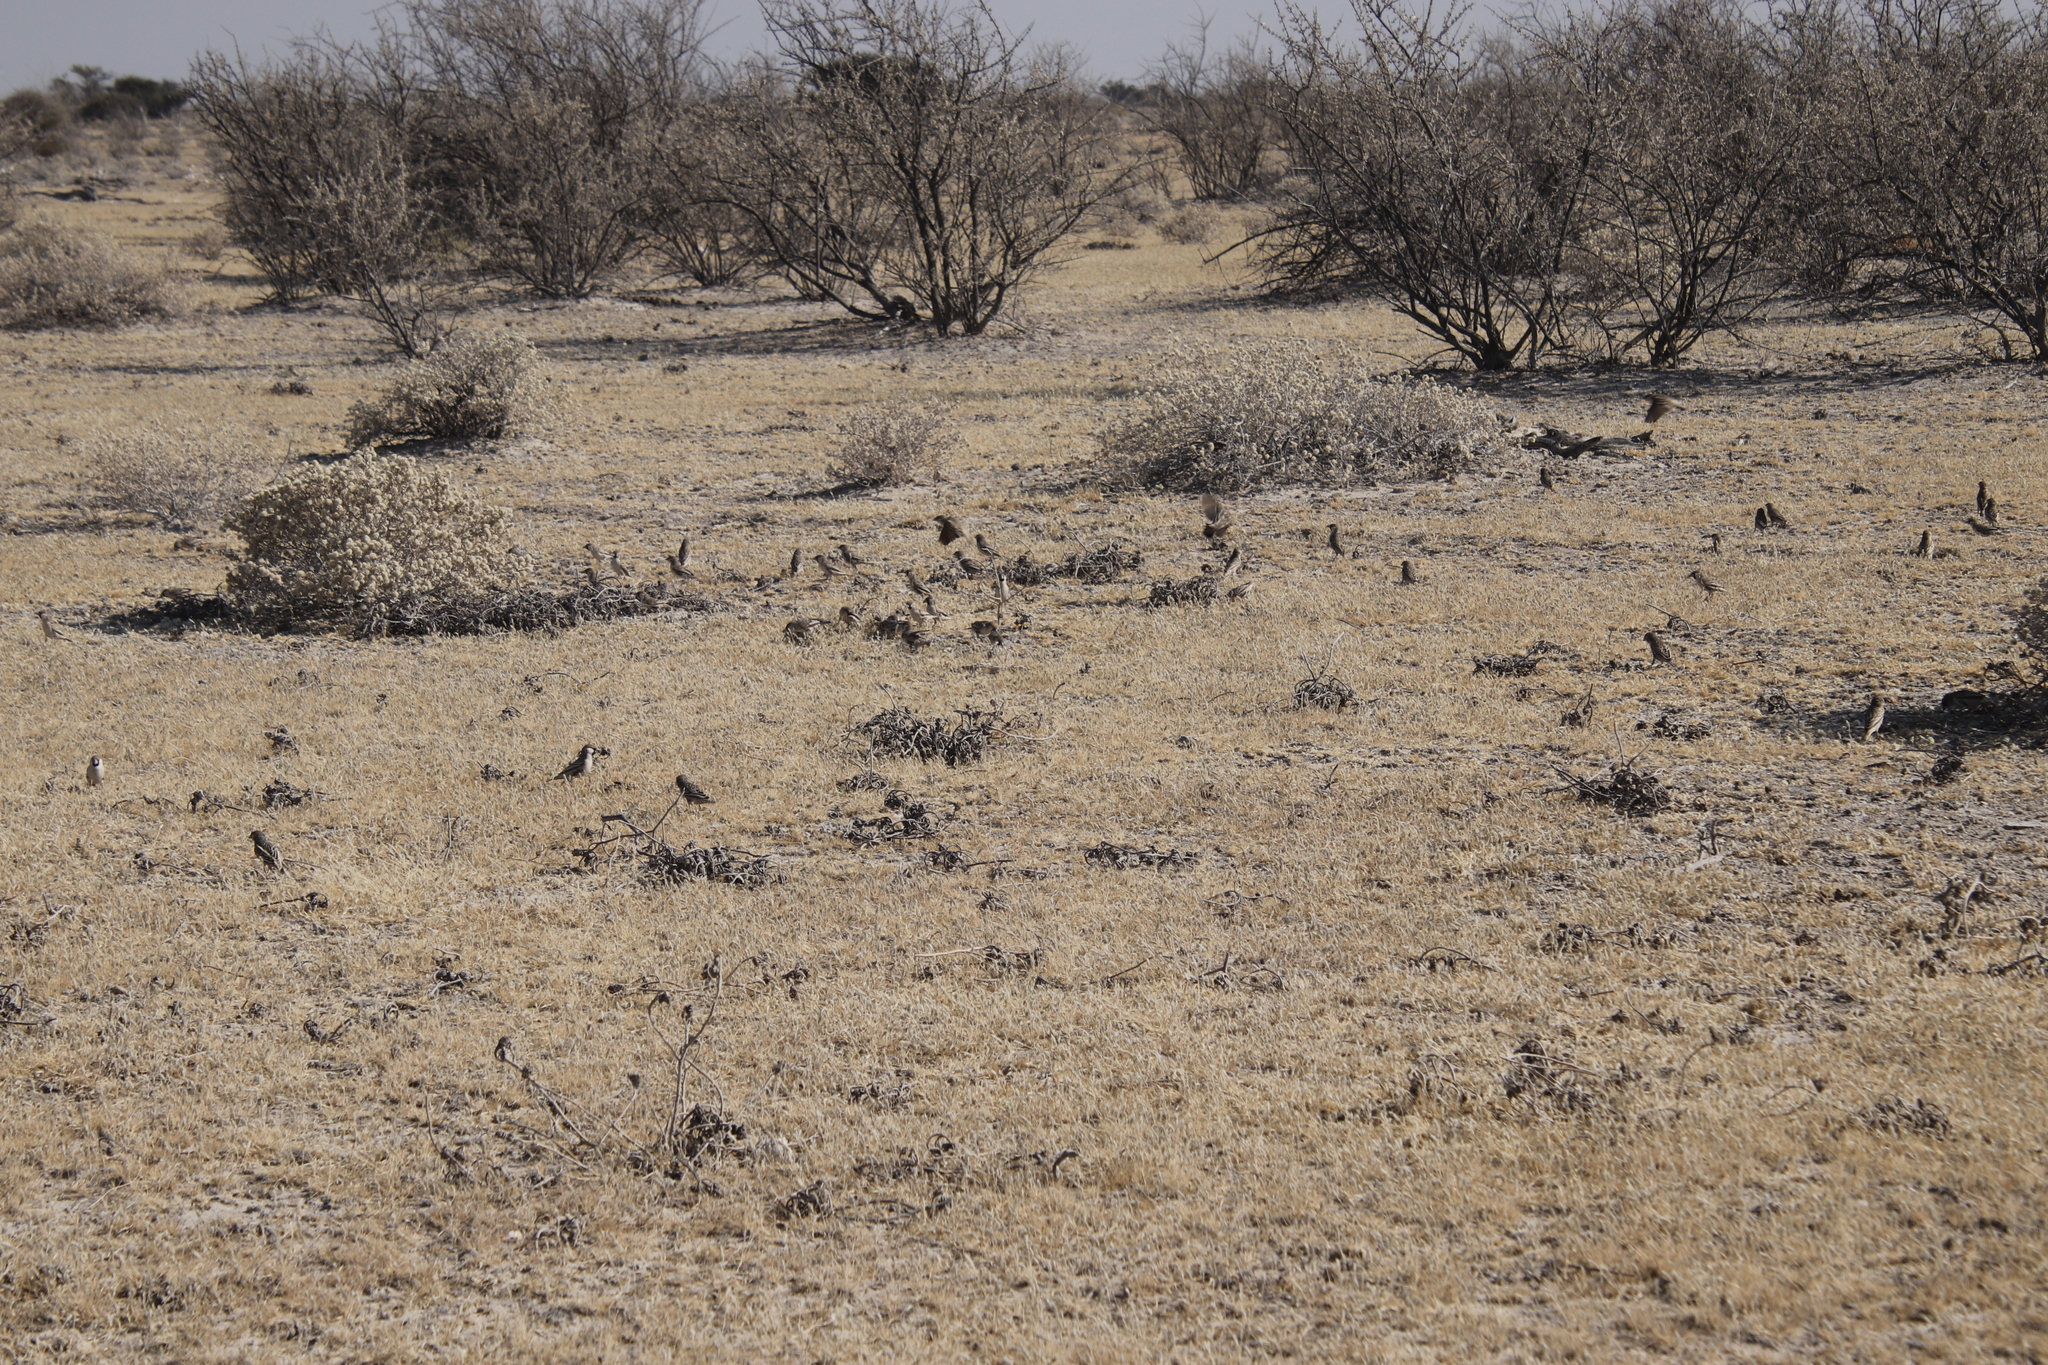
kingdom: Plantae
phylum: Tracheophyta
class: Magnoliopsida
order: Lamiales
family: Bignoniaceae
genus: Catophractes
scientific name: Catophractes alexandri
